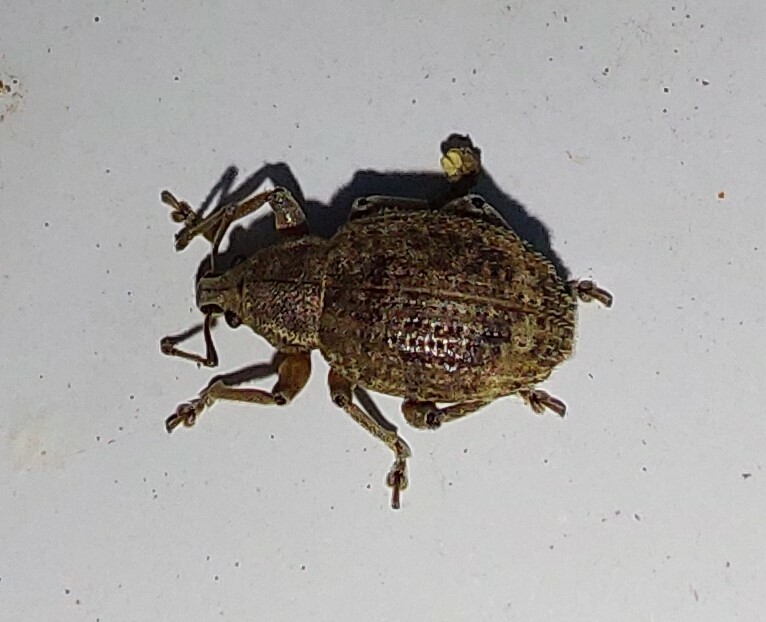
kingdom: Animalia
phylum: Arthropoda
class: Insecta
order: Coleoptera
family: Curculionidae
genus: Phlyctinus
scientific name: Phlyctinus callosus
